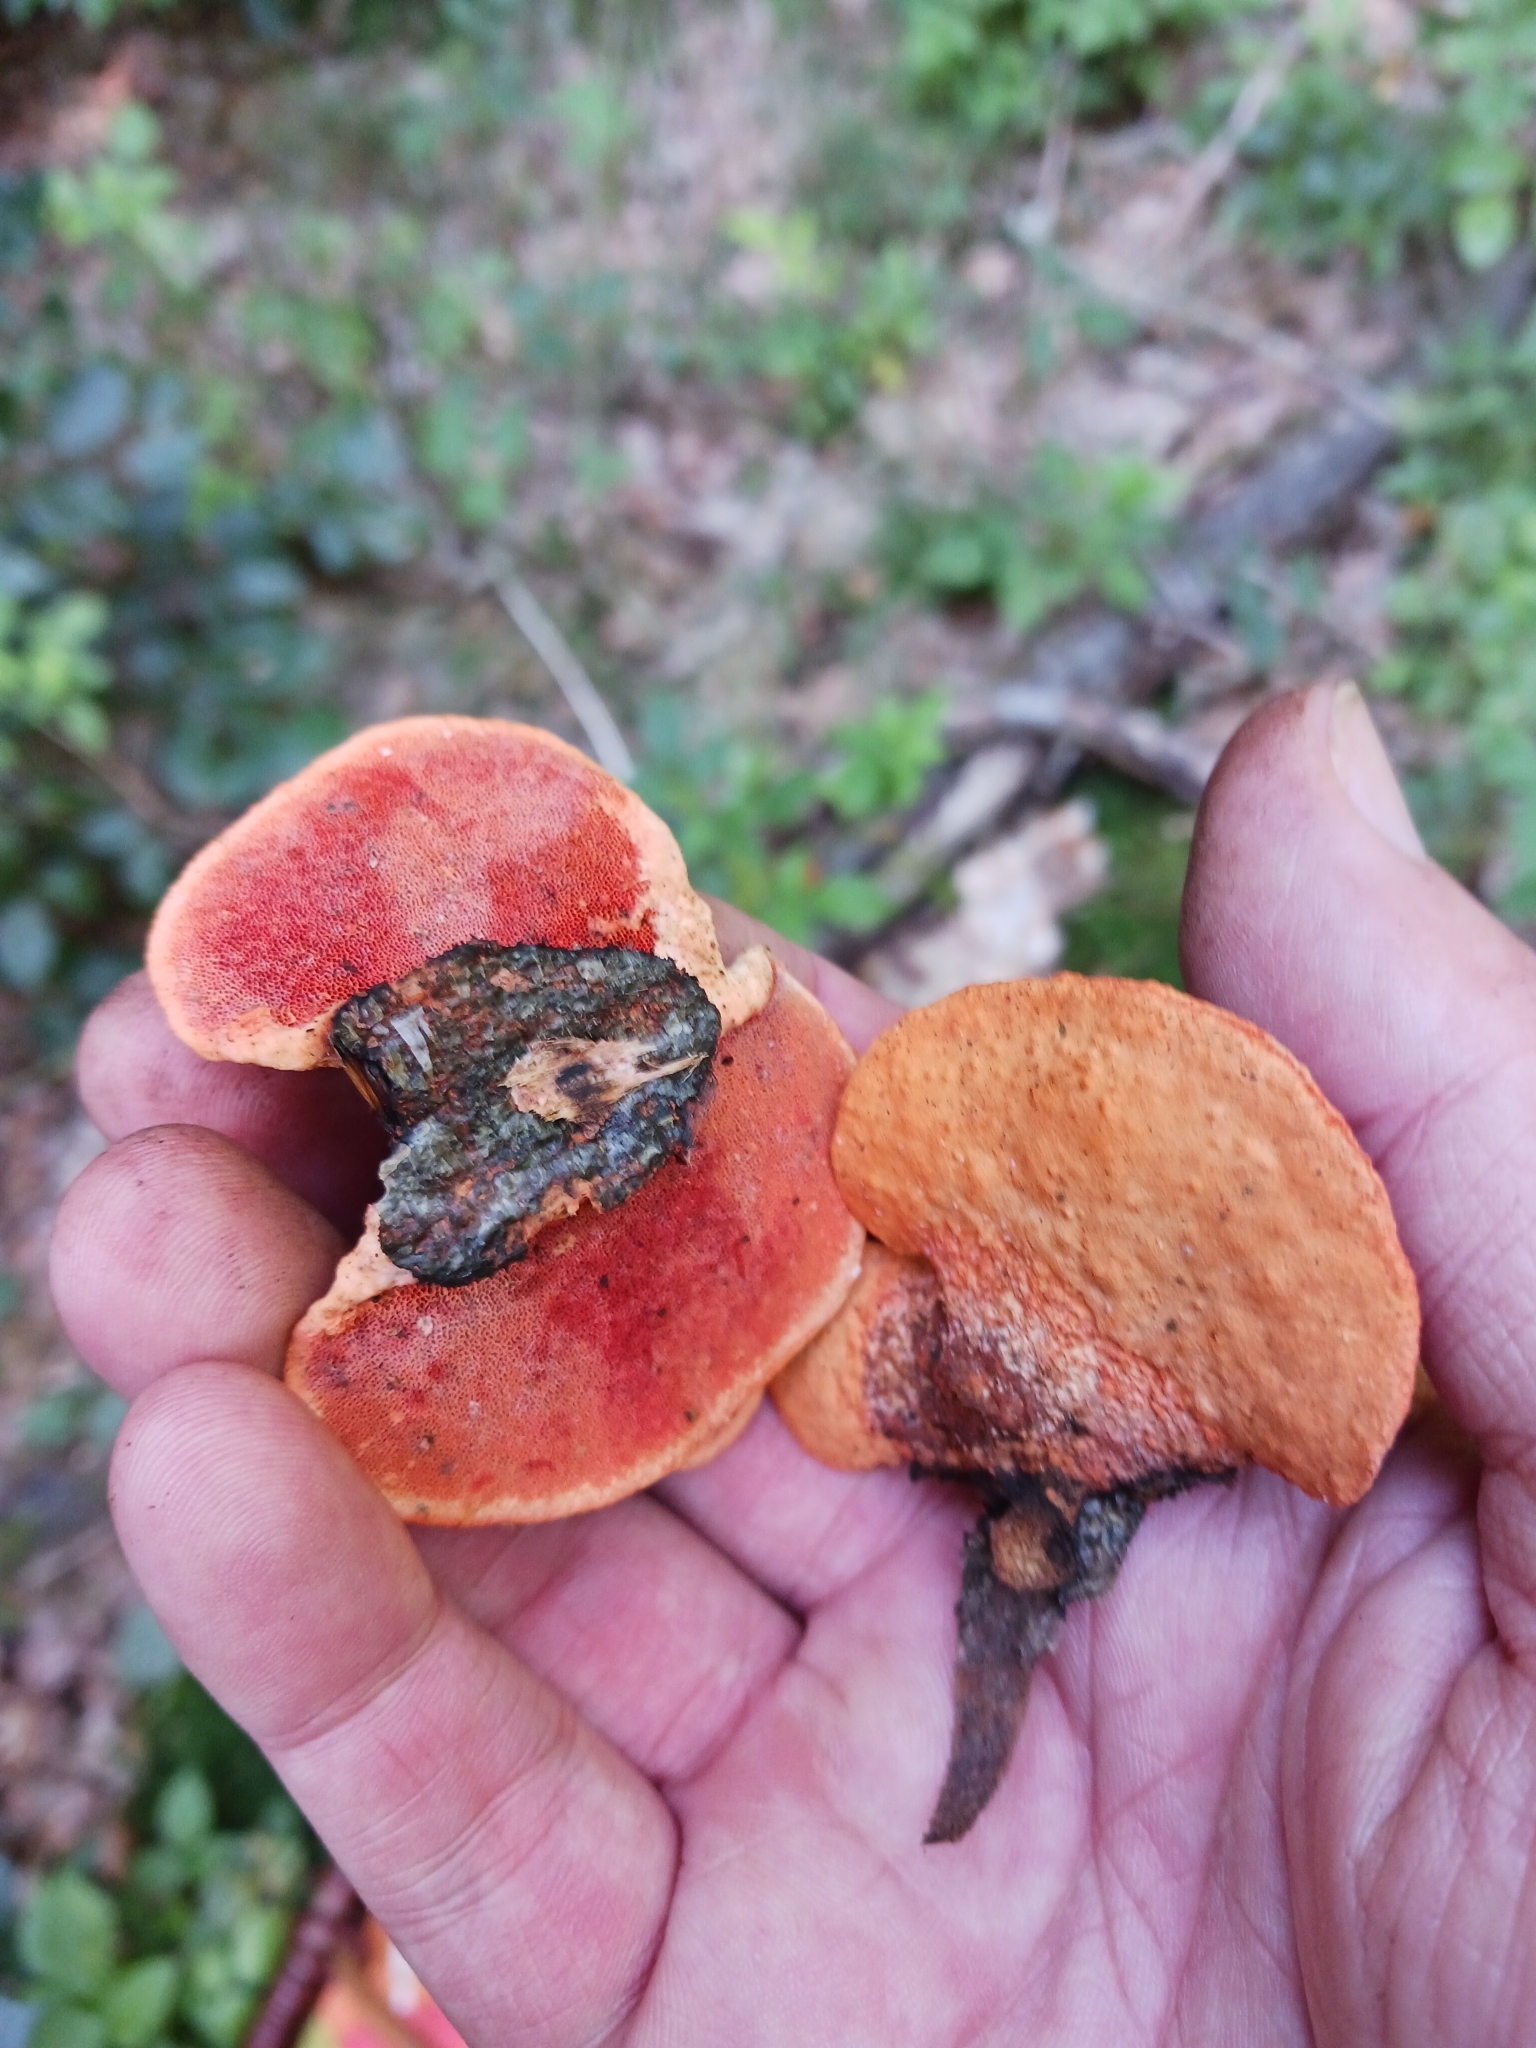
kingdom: Fungi
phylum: Basidiomycota
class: Agaricomycetes
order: Polyporales
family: Polyporaceae
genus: Trametes
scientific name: Trametes cinnabarina
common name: Northern cinnabar polypore
